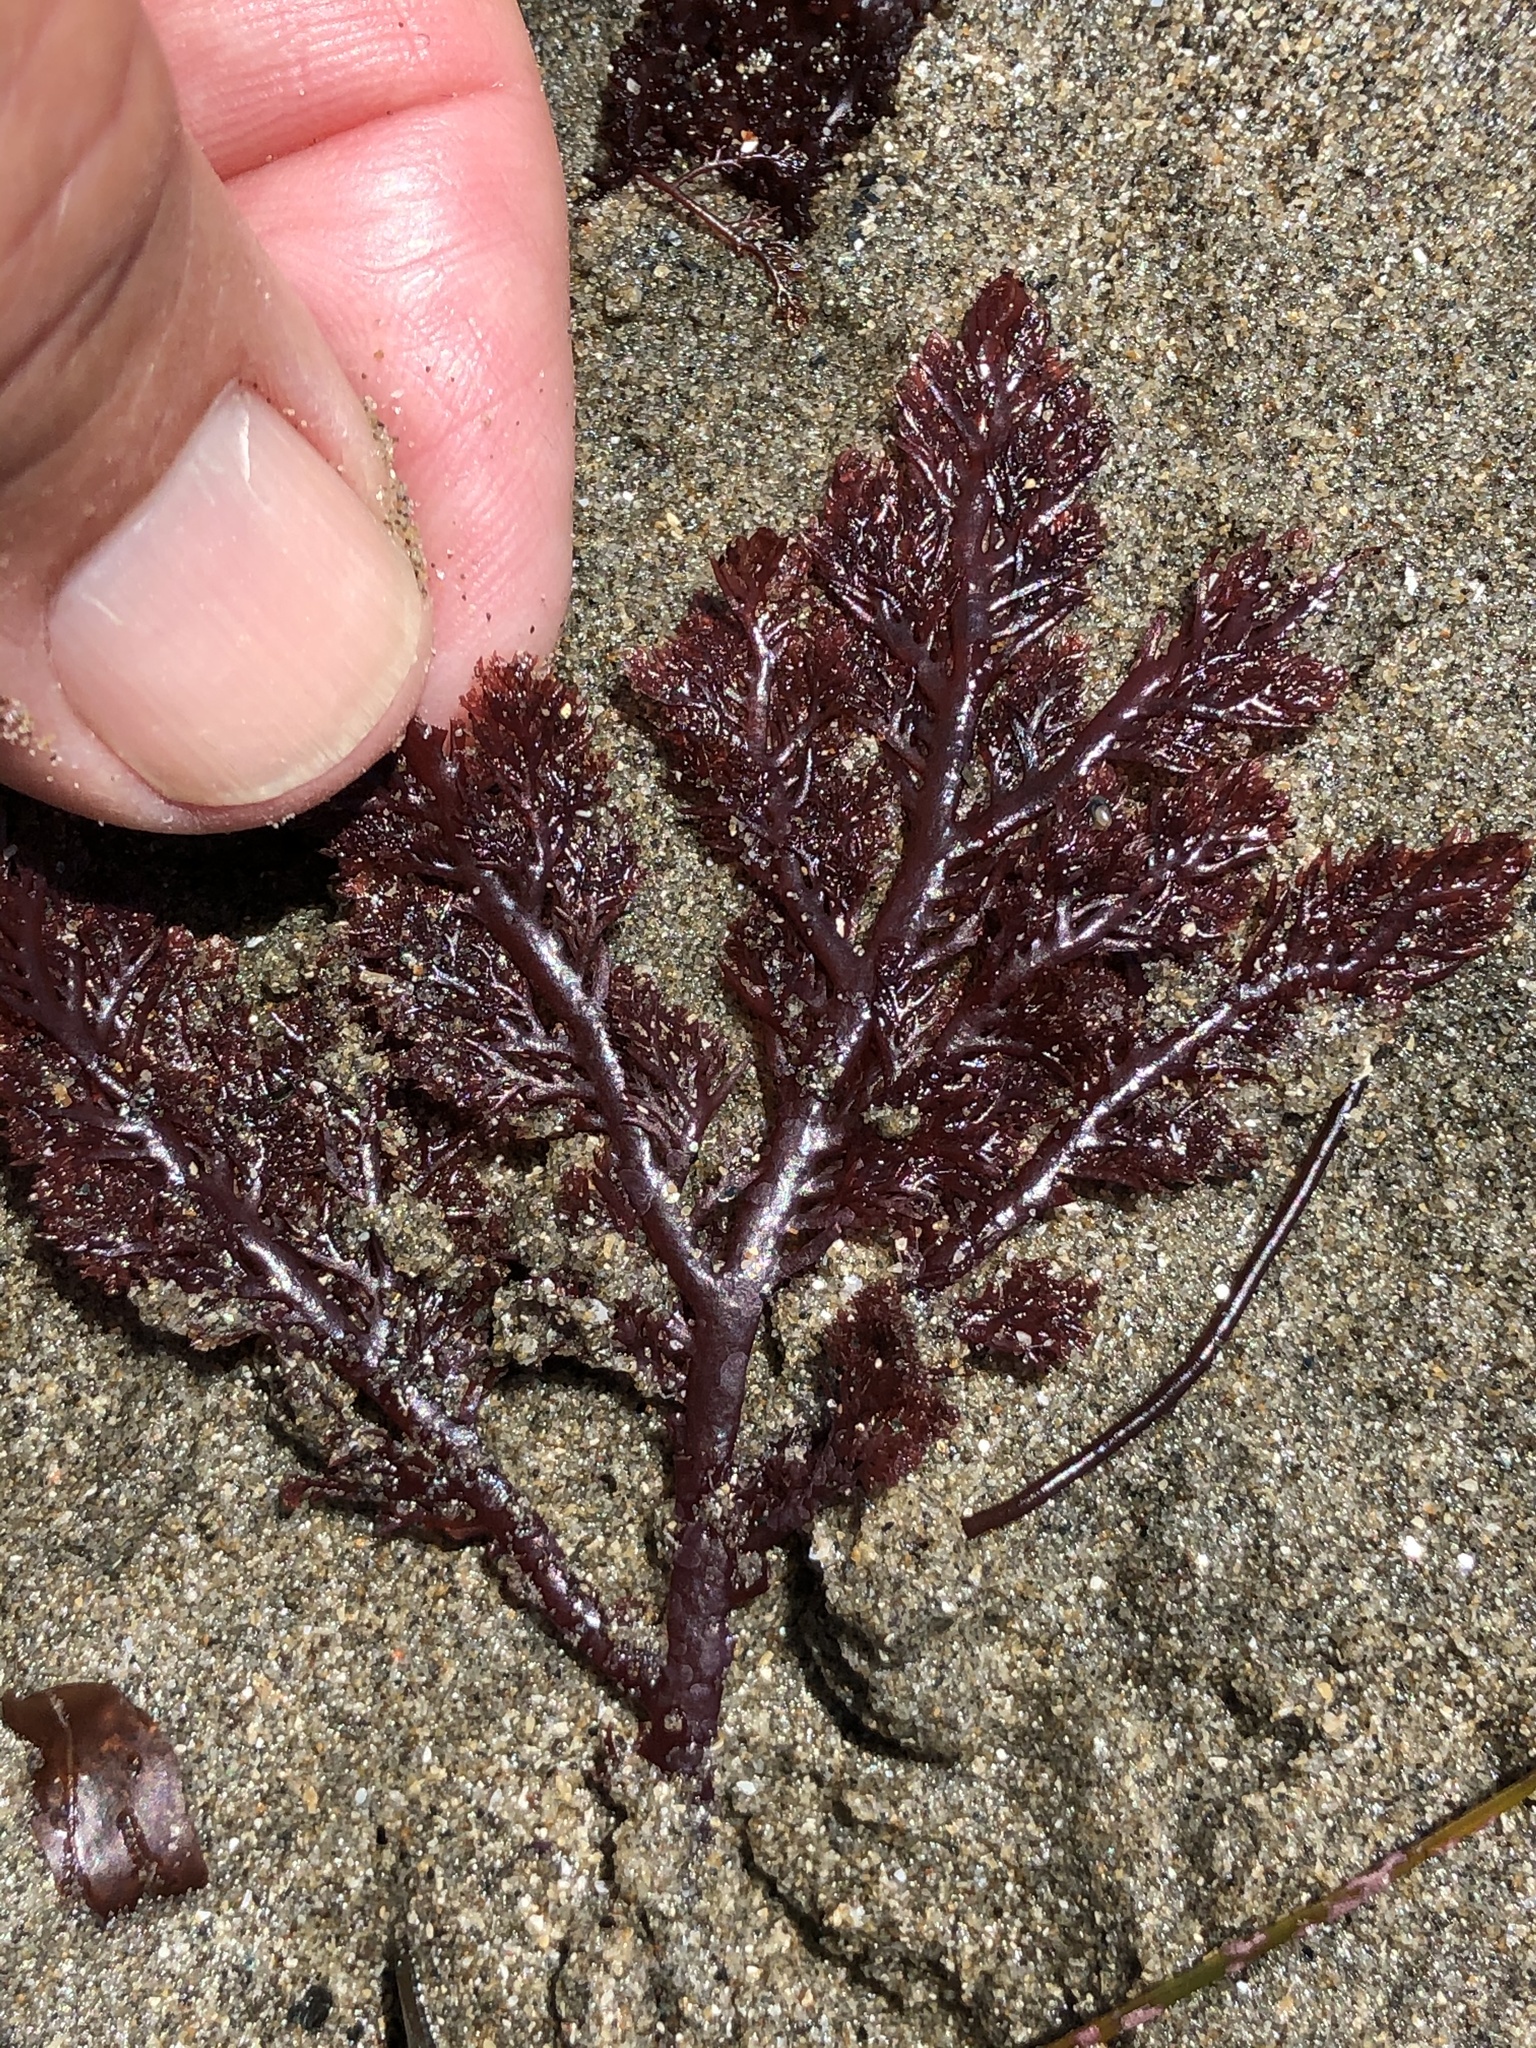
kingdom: Plantae
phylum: Rhodophyta
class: Florideophyceae
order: Plocamiales
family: Plocamiaceae
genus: Plocamium
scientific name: Plocamium cartilagineum
